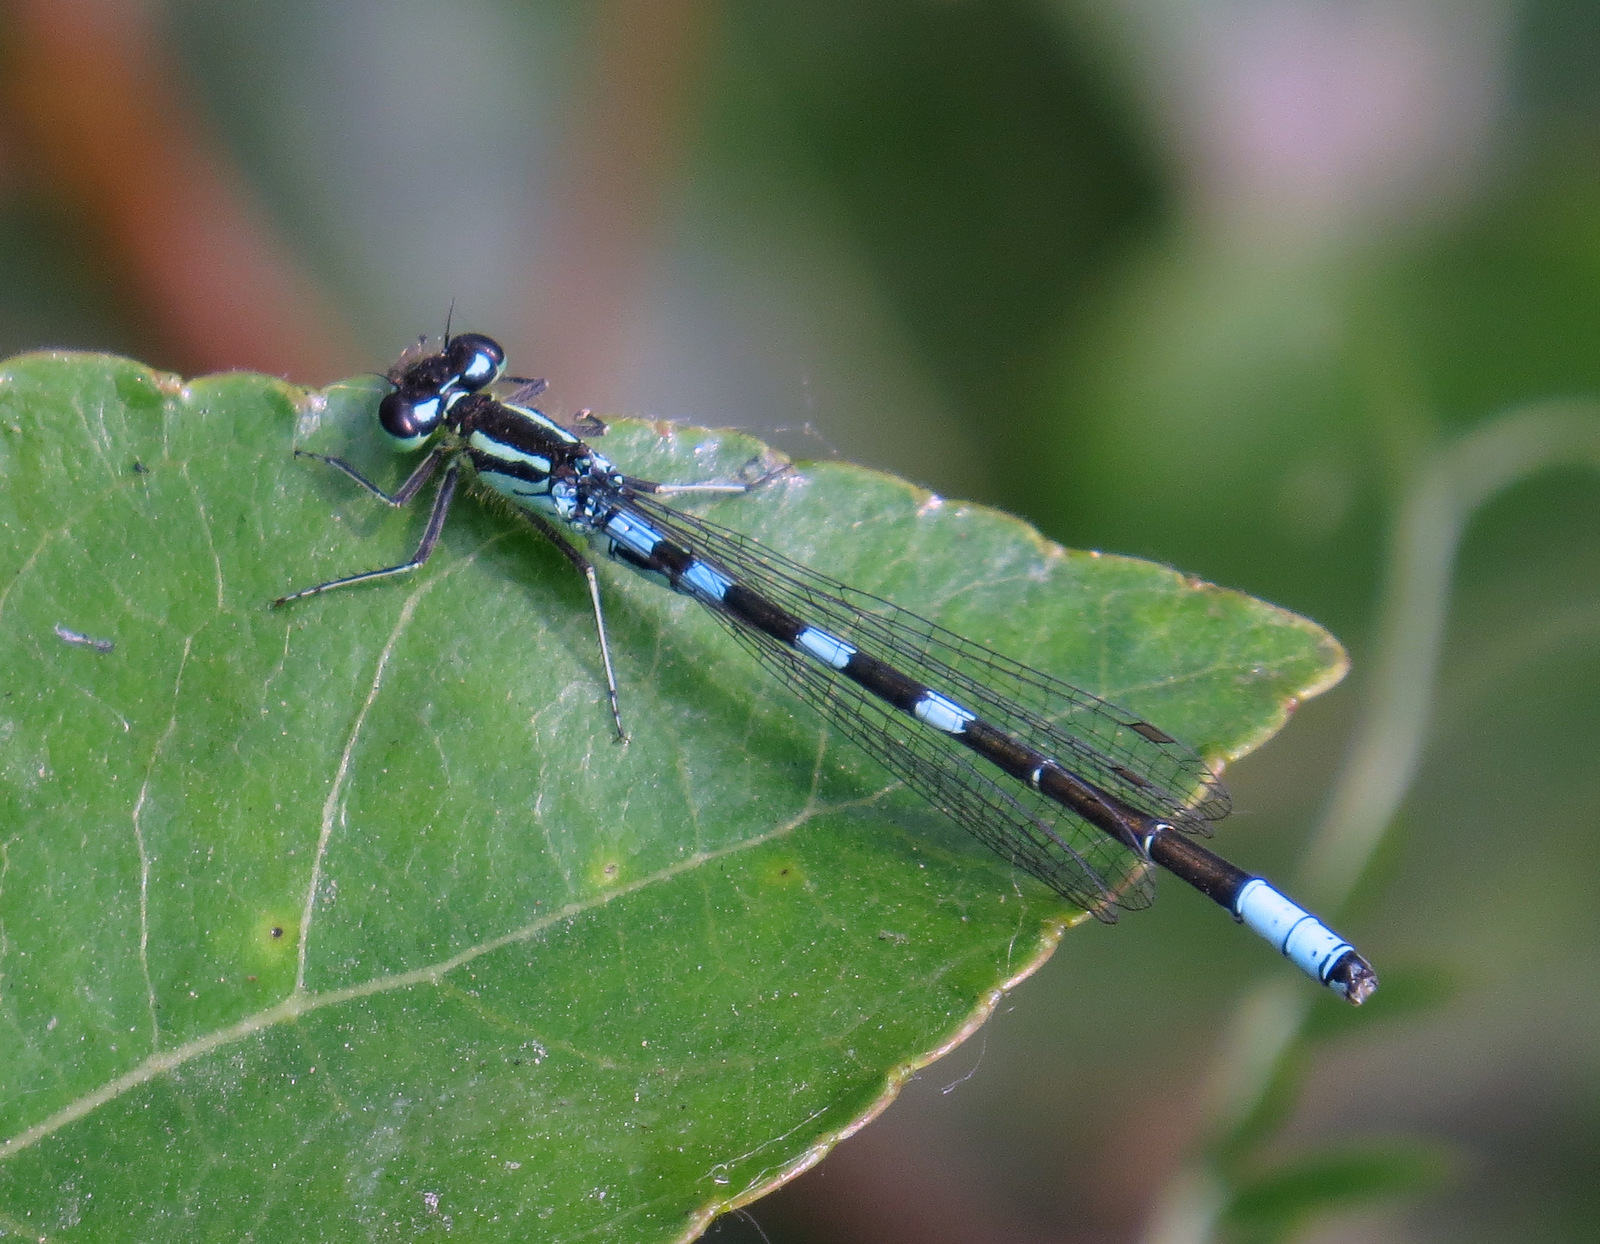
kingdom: Animalia
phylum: Arthropoda
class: Insecta
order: Odonata
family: Coenagrionidae
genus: Coenagrion
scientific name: Coenagrion resolutum
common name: Taiga bluet
